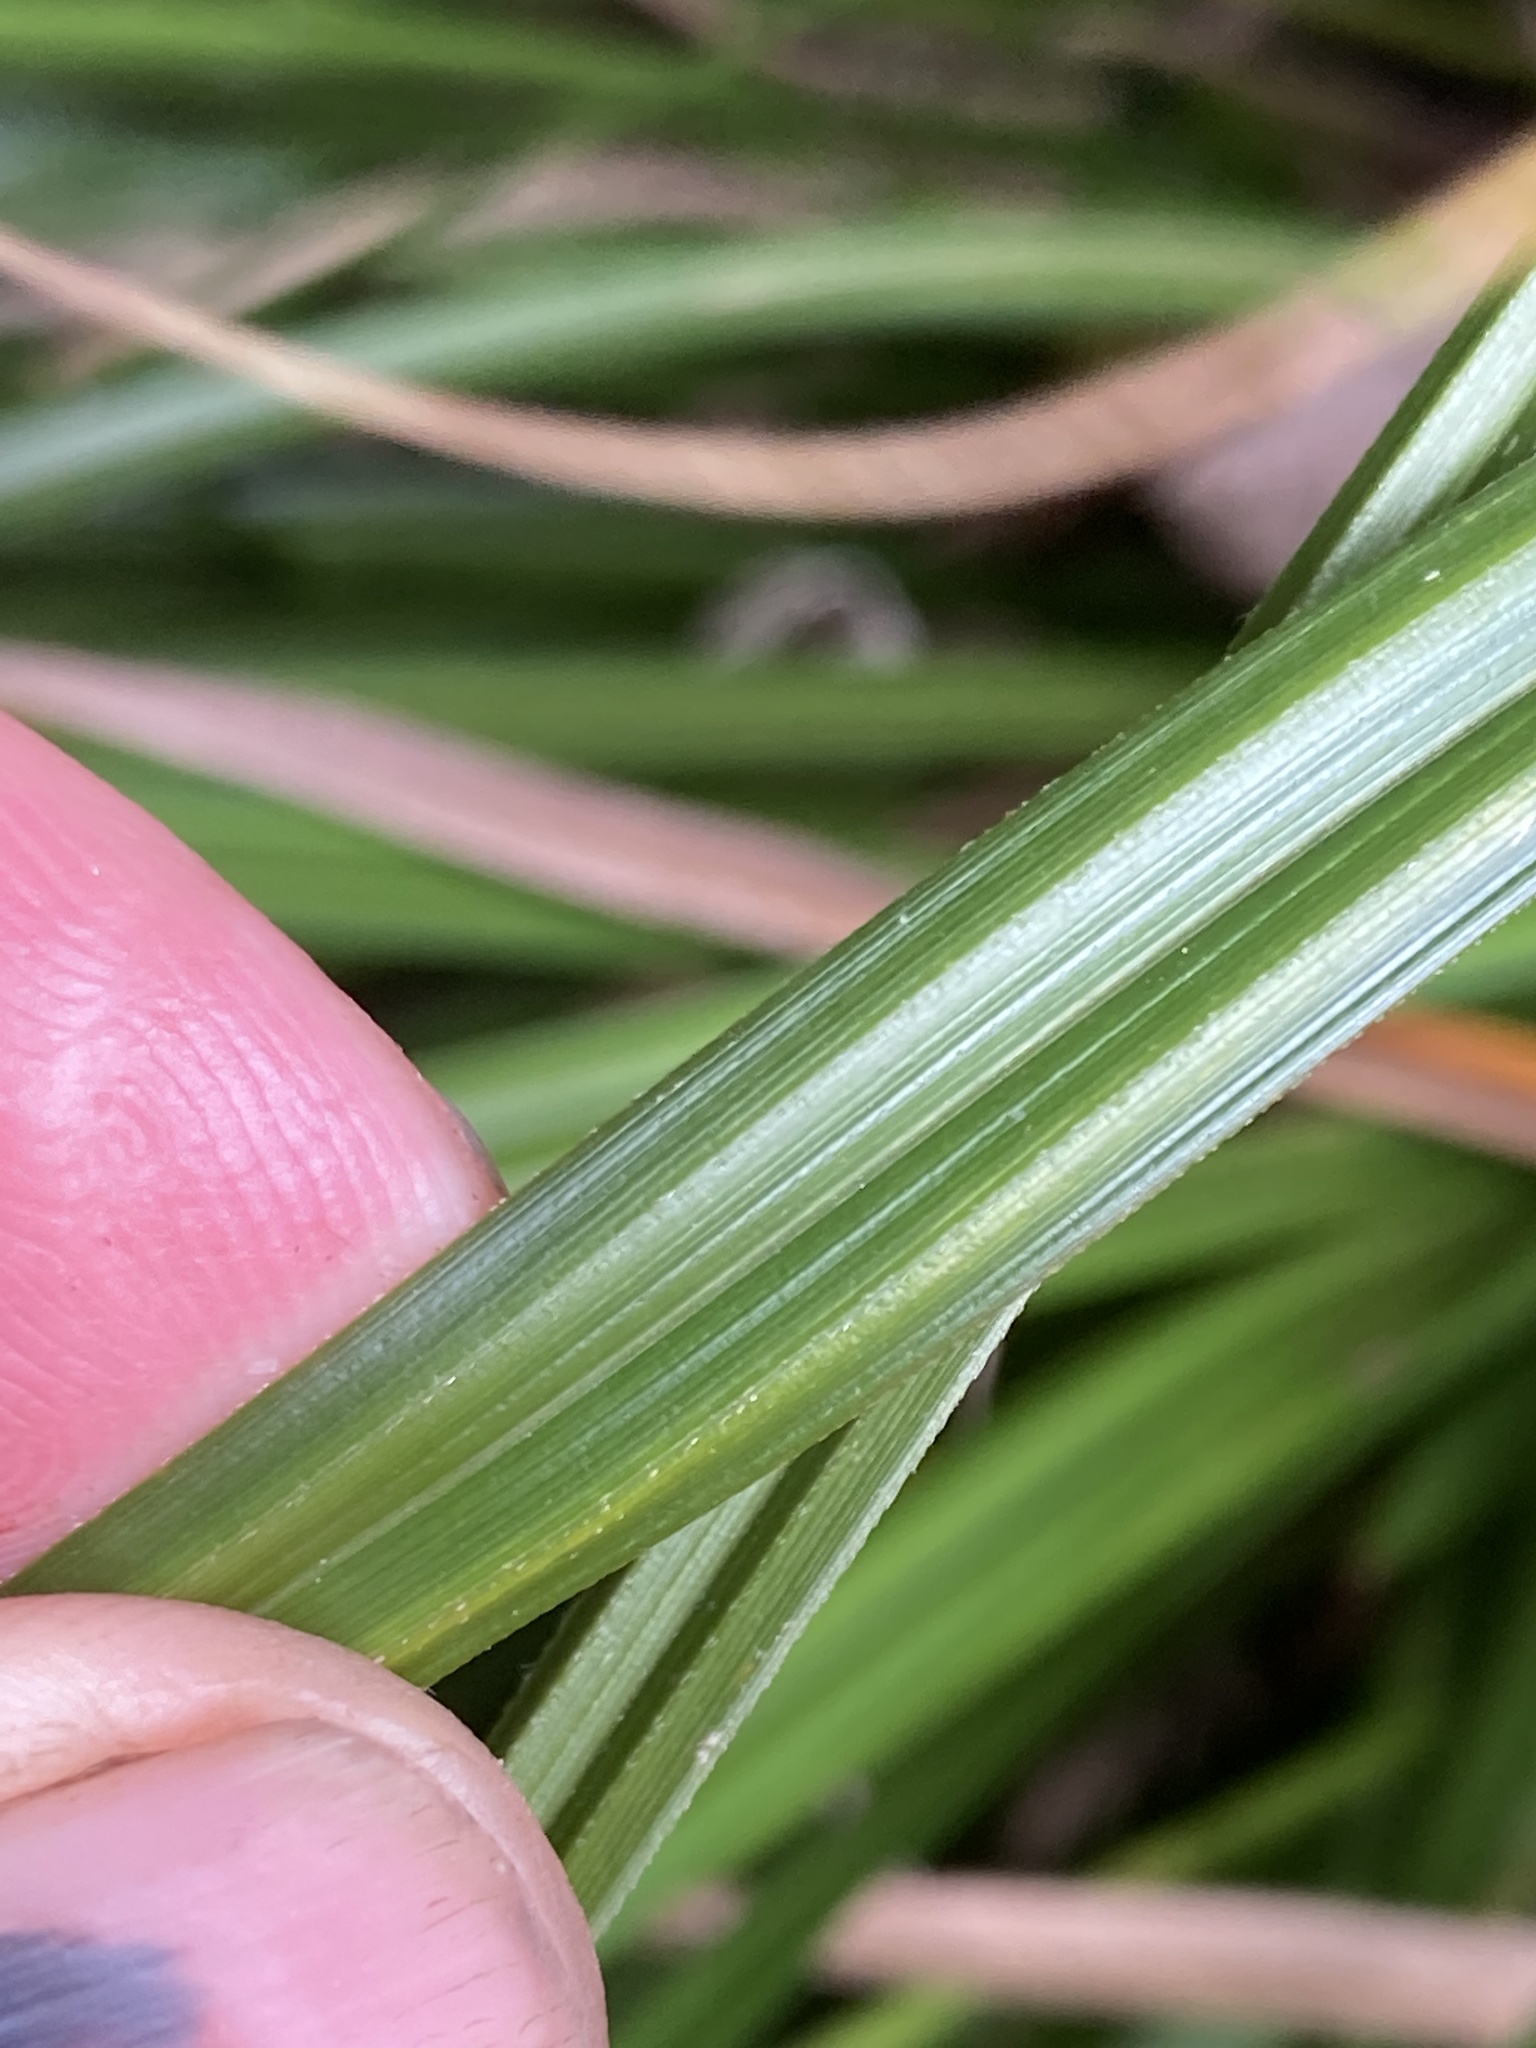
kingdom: Plantae
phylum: Tracheophyta
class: Liliopsida
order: Poales
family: Cyperaceae
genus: Carex
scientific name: Carex forsteri
